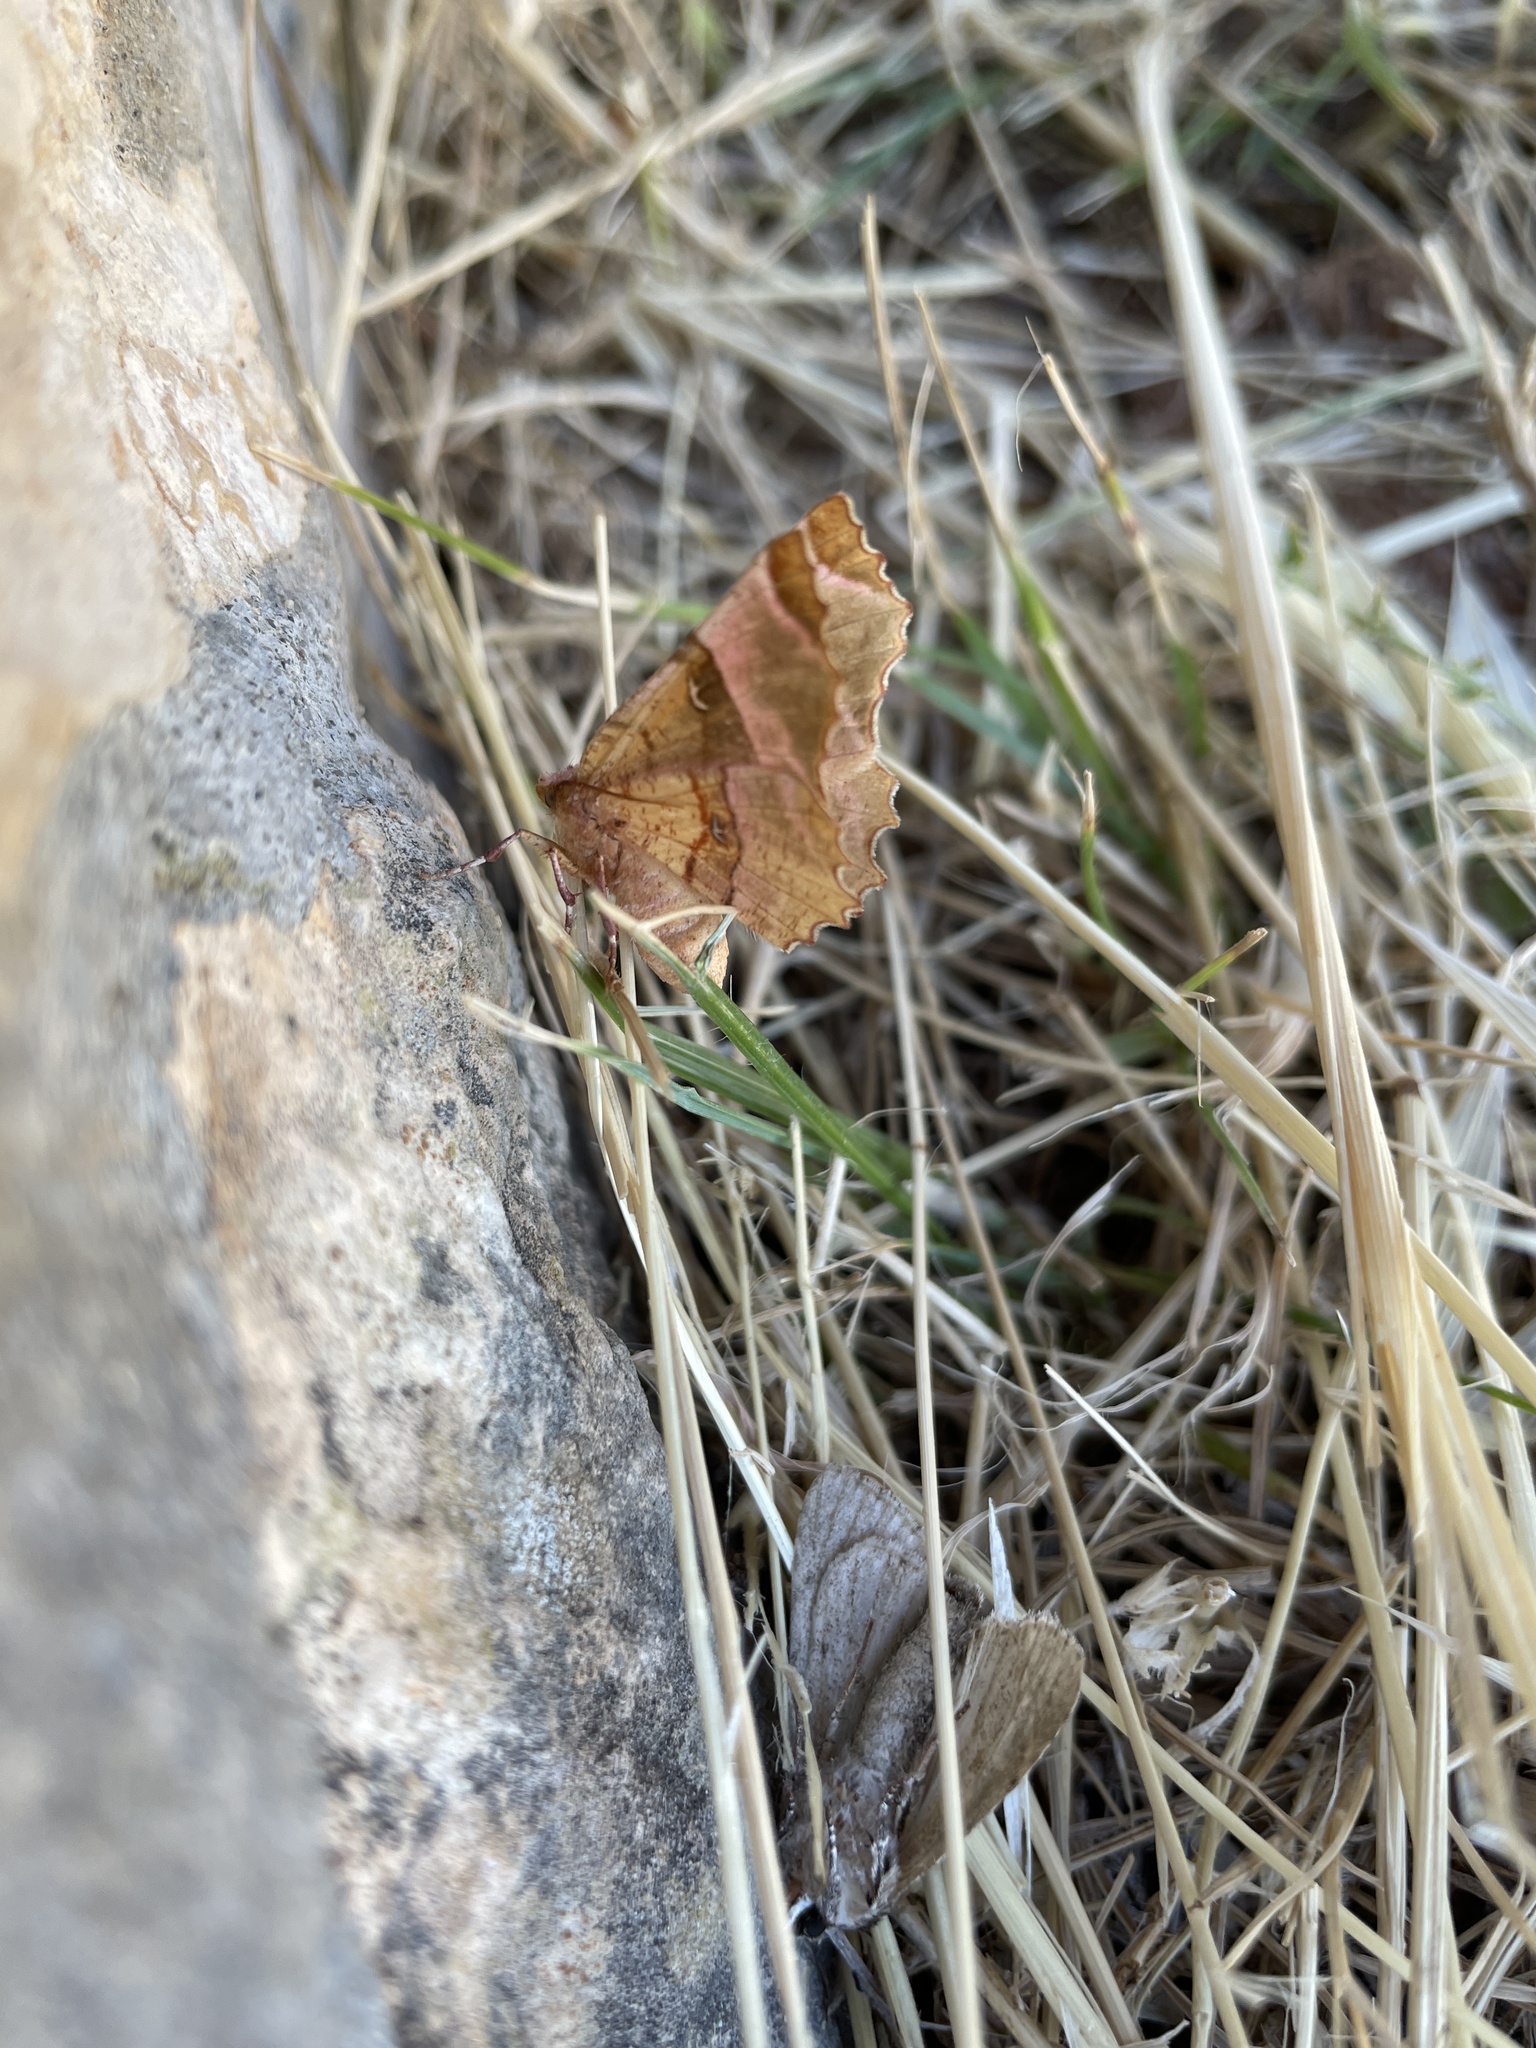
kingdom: Animalia
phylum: Arthropoda
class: Insecta
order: Lepidoptera
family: Geometridae
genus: Selenia
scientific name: Selenia lunularia
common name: Lunar thorn
